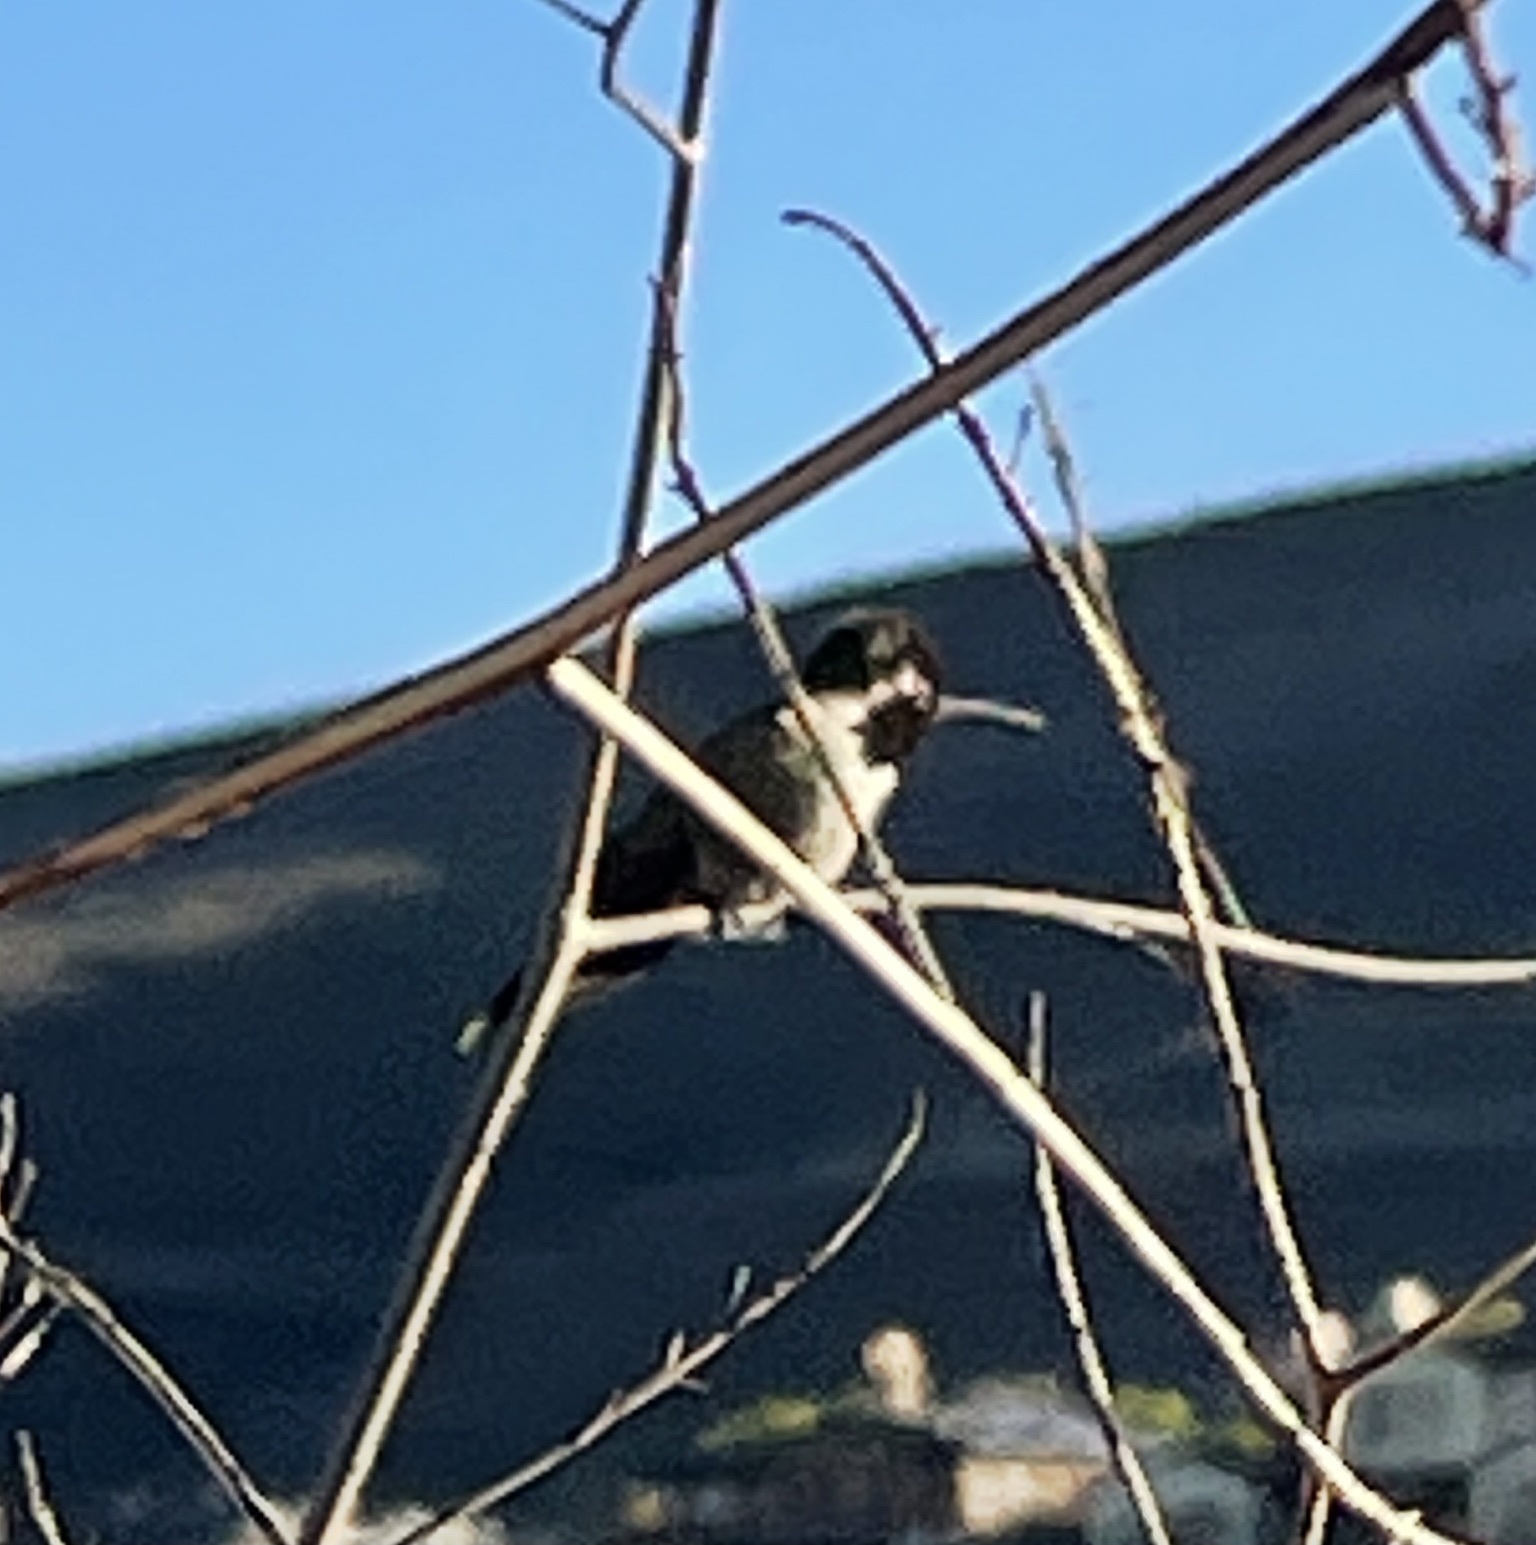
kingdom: Animalia
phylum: Chordata
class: Aves
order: Apodiformes
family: Trochilidae
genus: Calypte
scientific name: Calypte anna
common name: Anna's hummingbird
